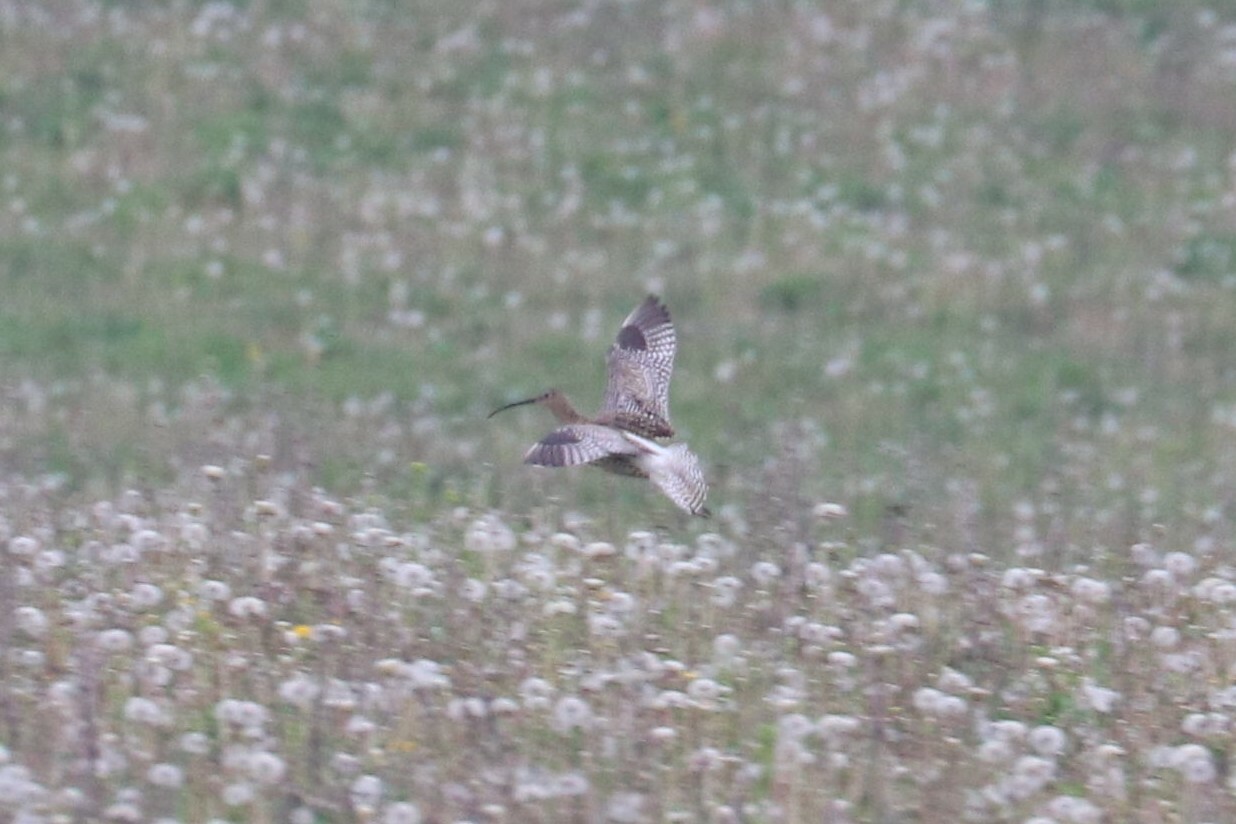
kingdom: Animalia
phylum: Chordata
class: Aves
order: Charadriiformes
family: Scolopacidae
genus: Numenius
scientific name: Numenius arquata
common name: Eurasian curlew
